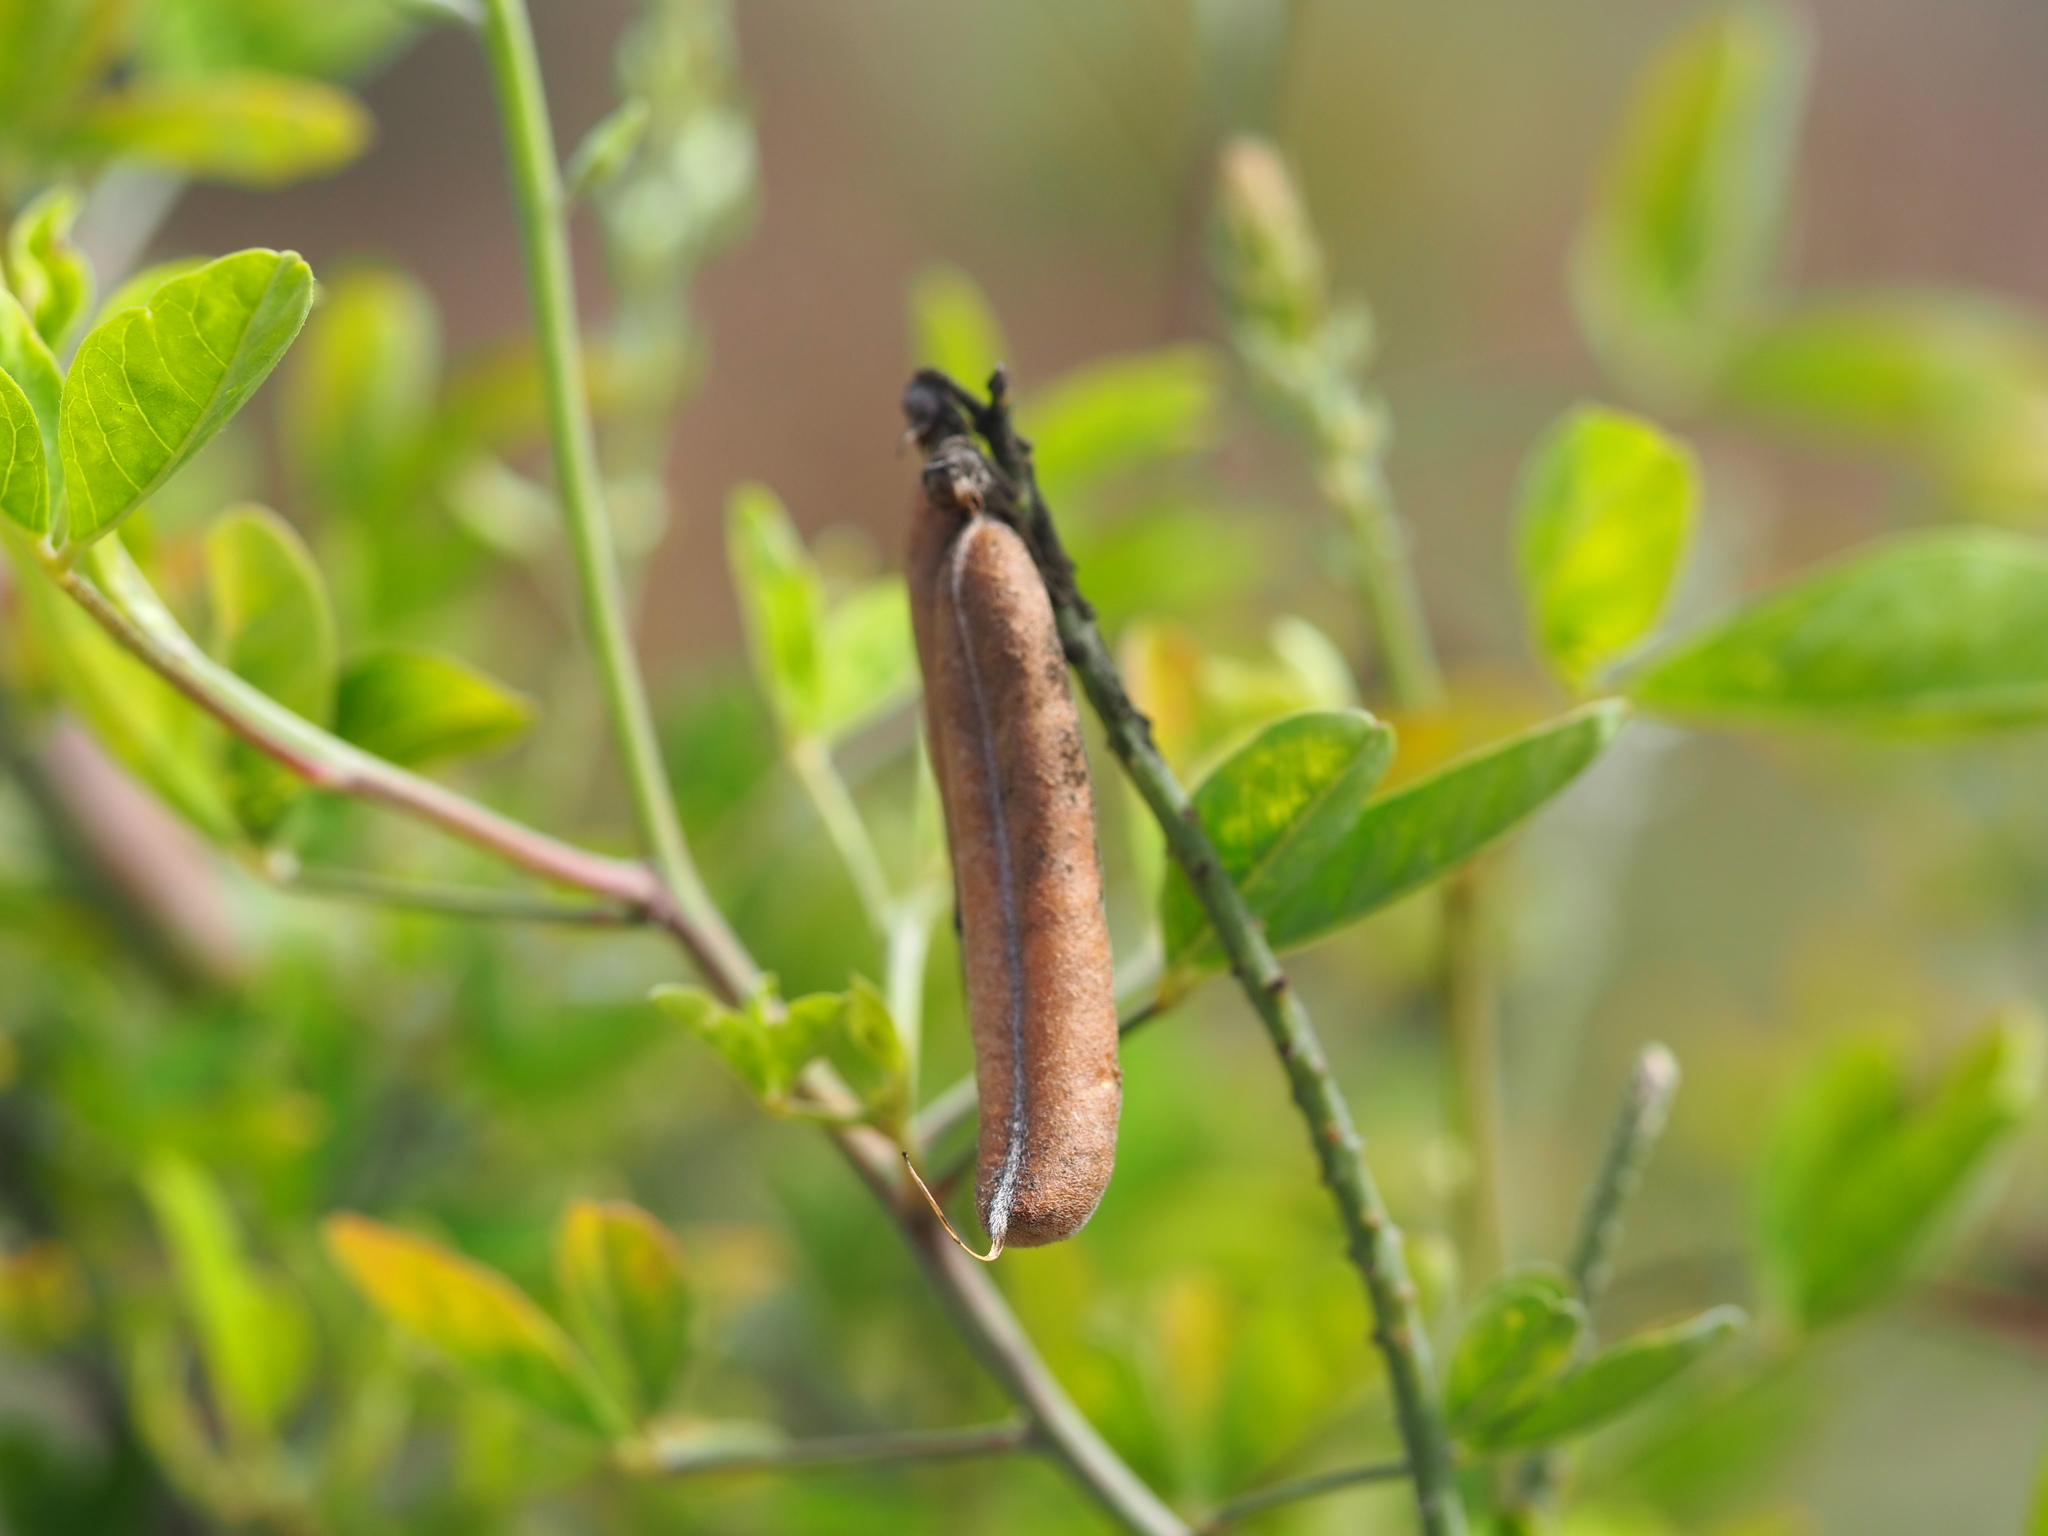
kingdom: Plantae
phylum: Tracheophyta
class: Magnoliopsida
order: Fabales
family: Fabaceae
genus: Crotalaria
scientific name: Crotalaria pallida
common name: Smooth rattlebox
